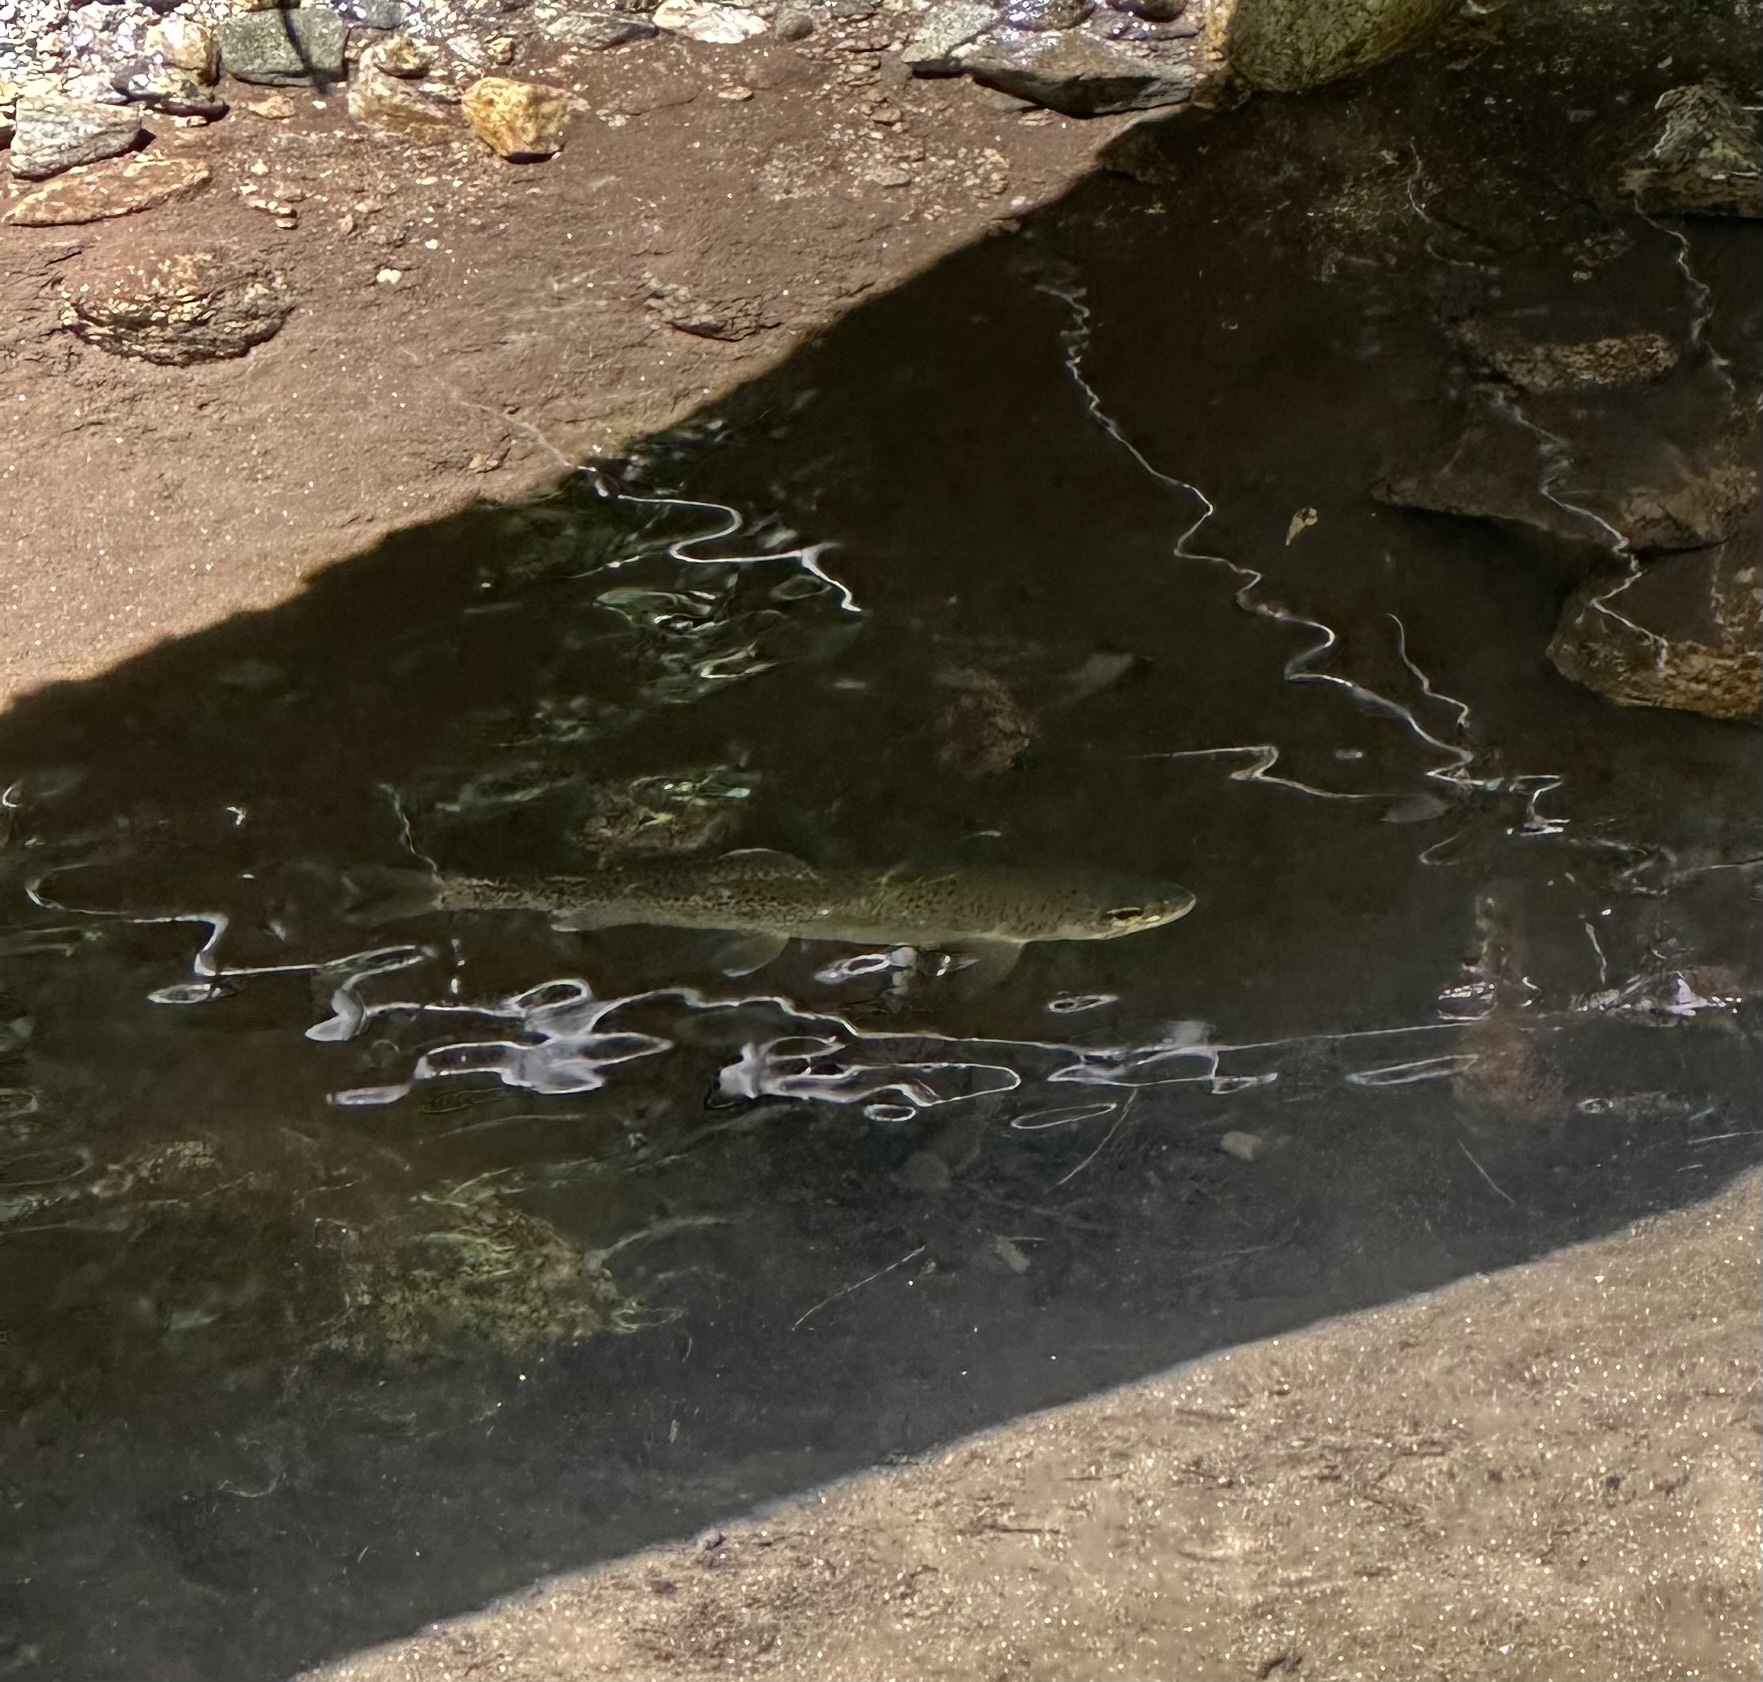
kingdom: Animalia
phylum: Chordata
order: Salmoniformes
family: Salmonidae
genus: Oncorhynchus
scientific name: Oncorhynchus mykiss
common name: Rainbow trout
